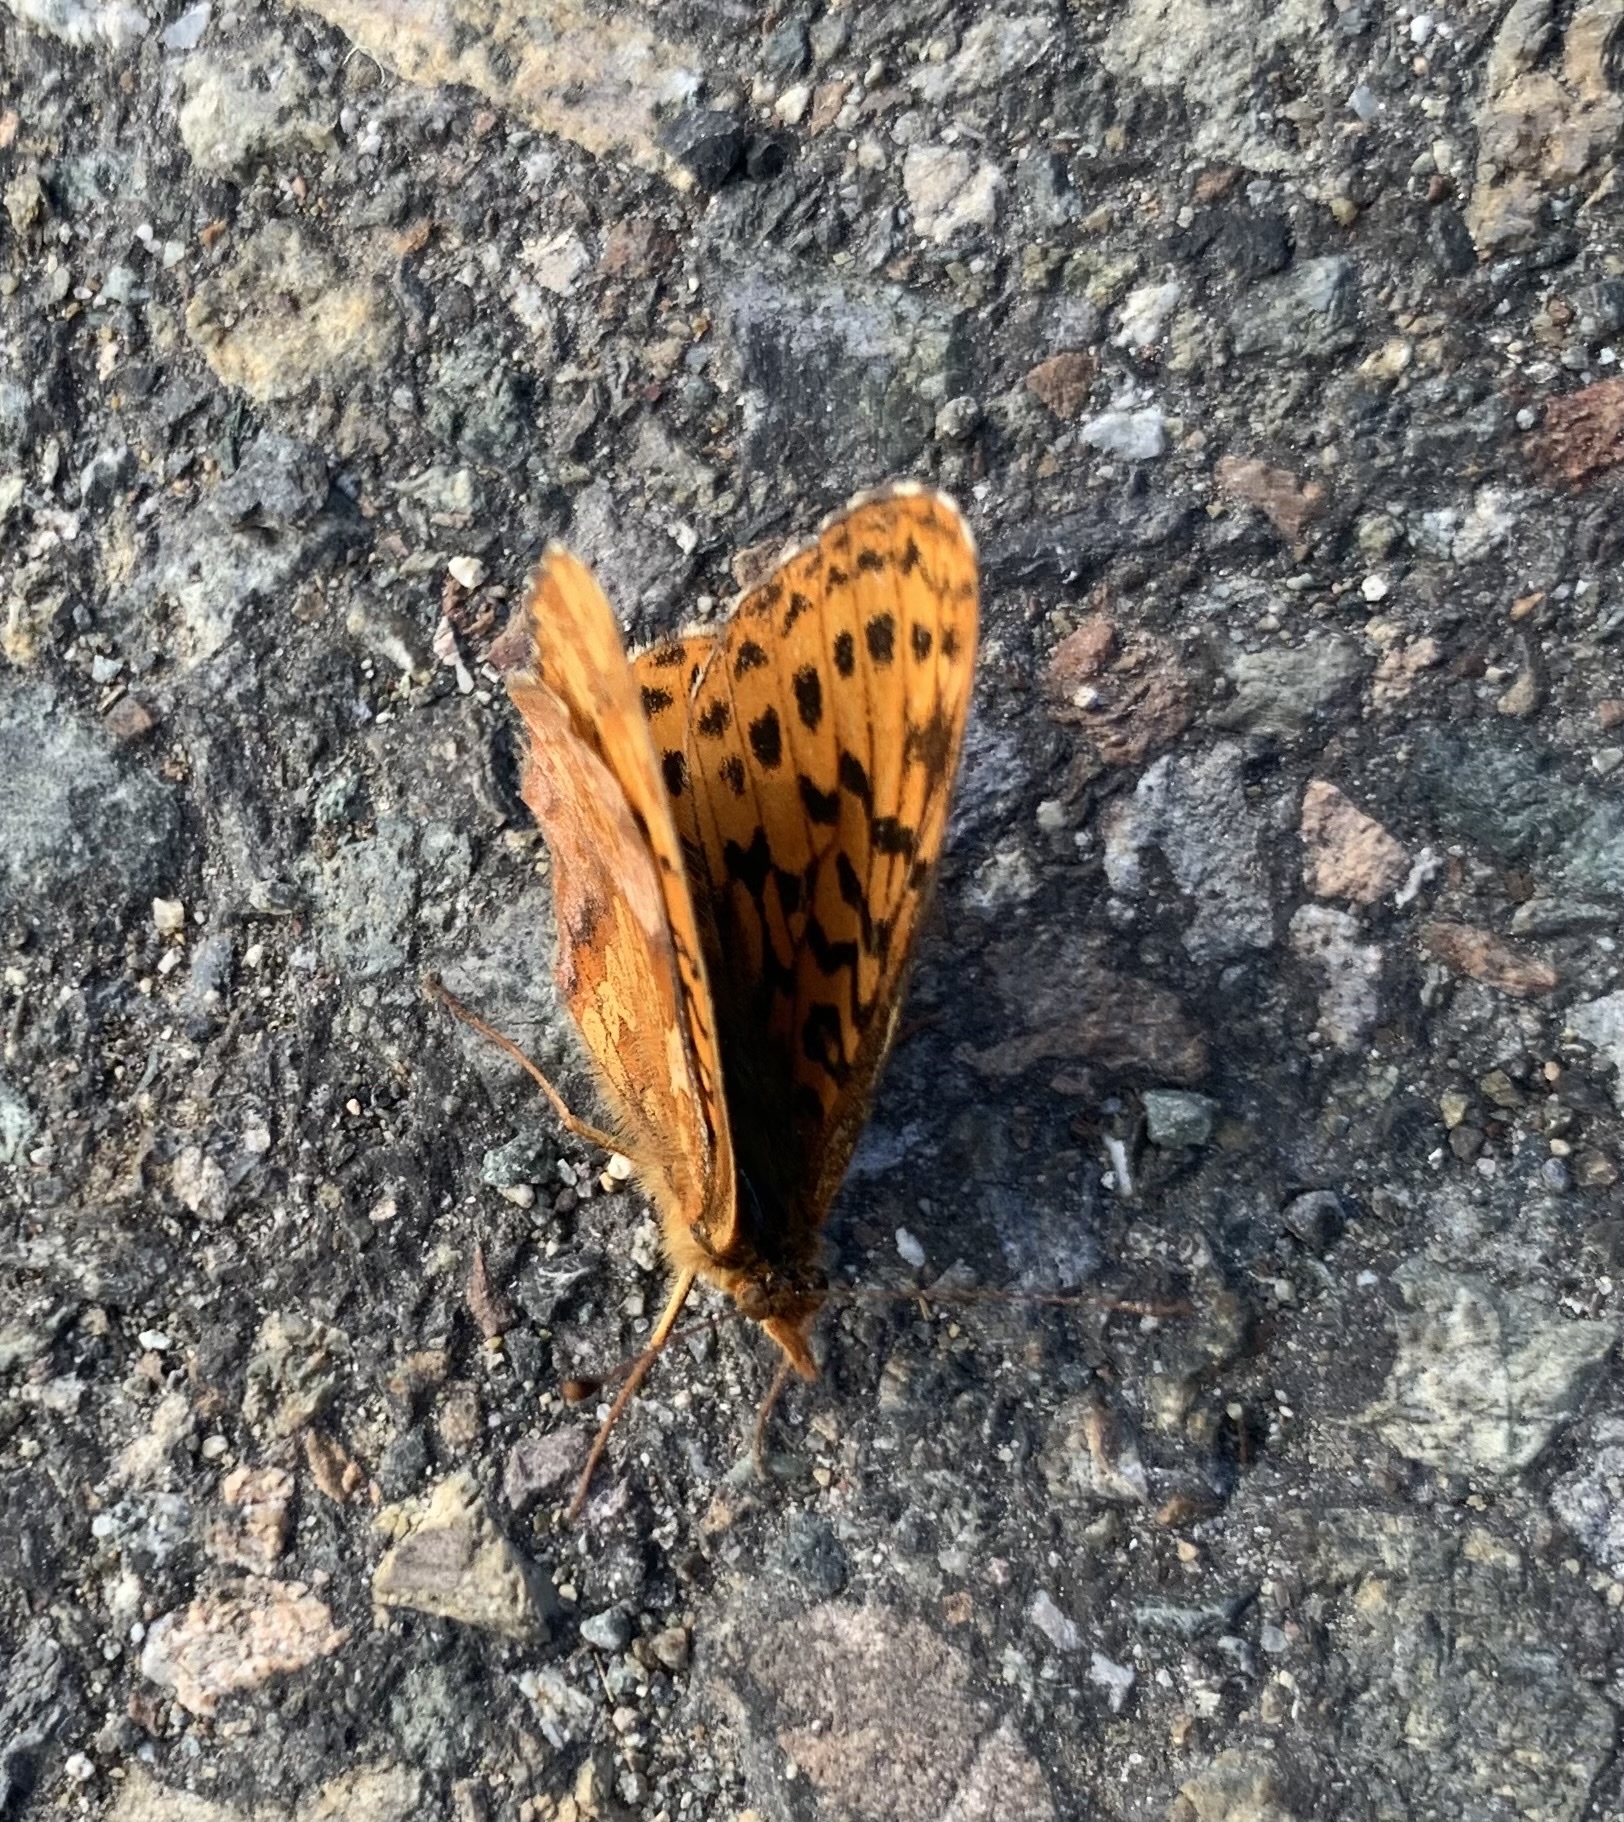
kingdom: Animalia
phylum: Arthropoda
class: Insecta
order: Lepidoptera
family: Nymphalidae
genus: Boloria
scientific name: Boloria epithore
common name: Pacific fritillary
